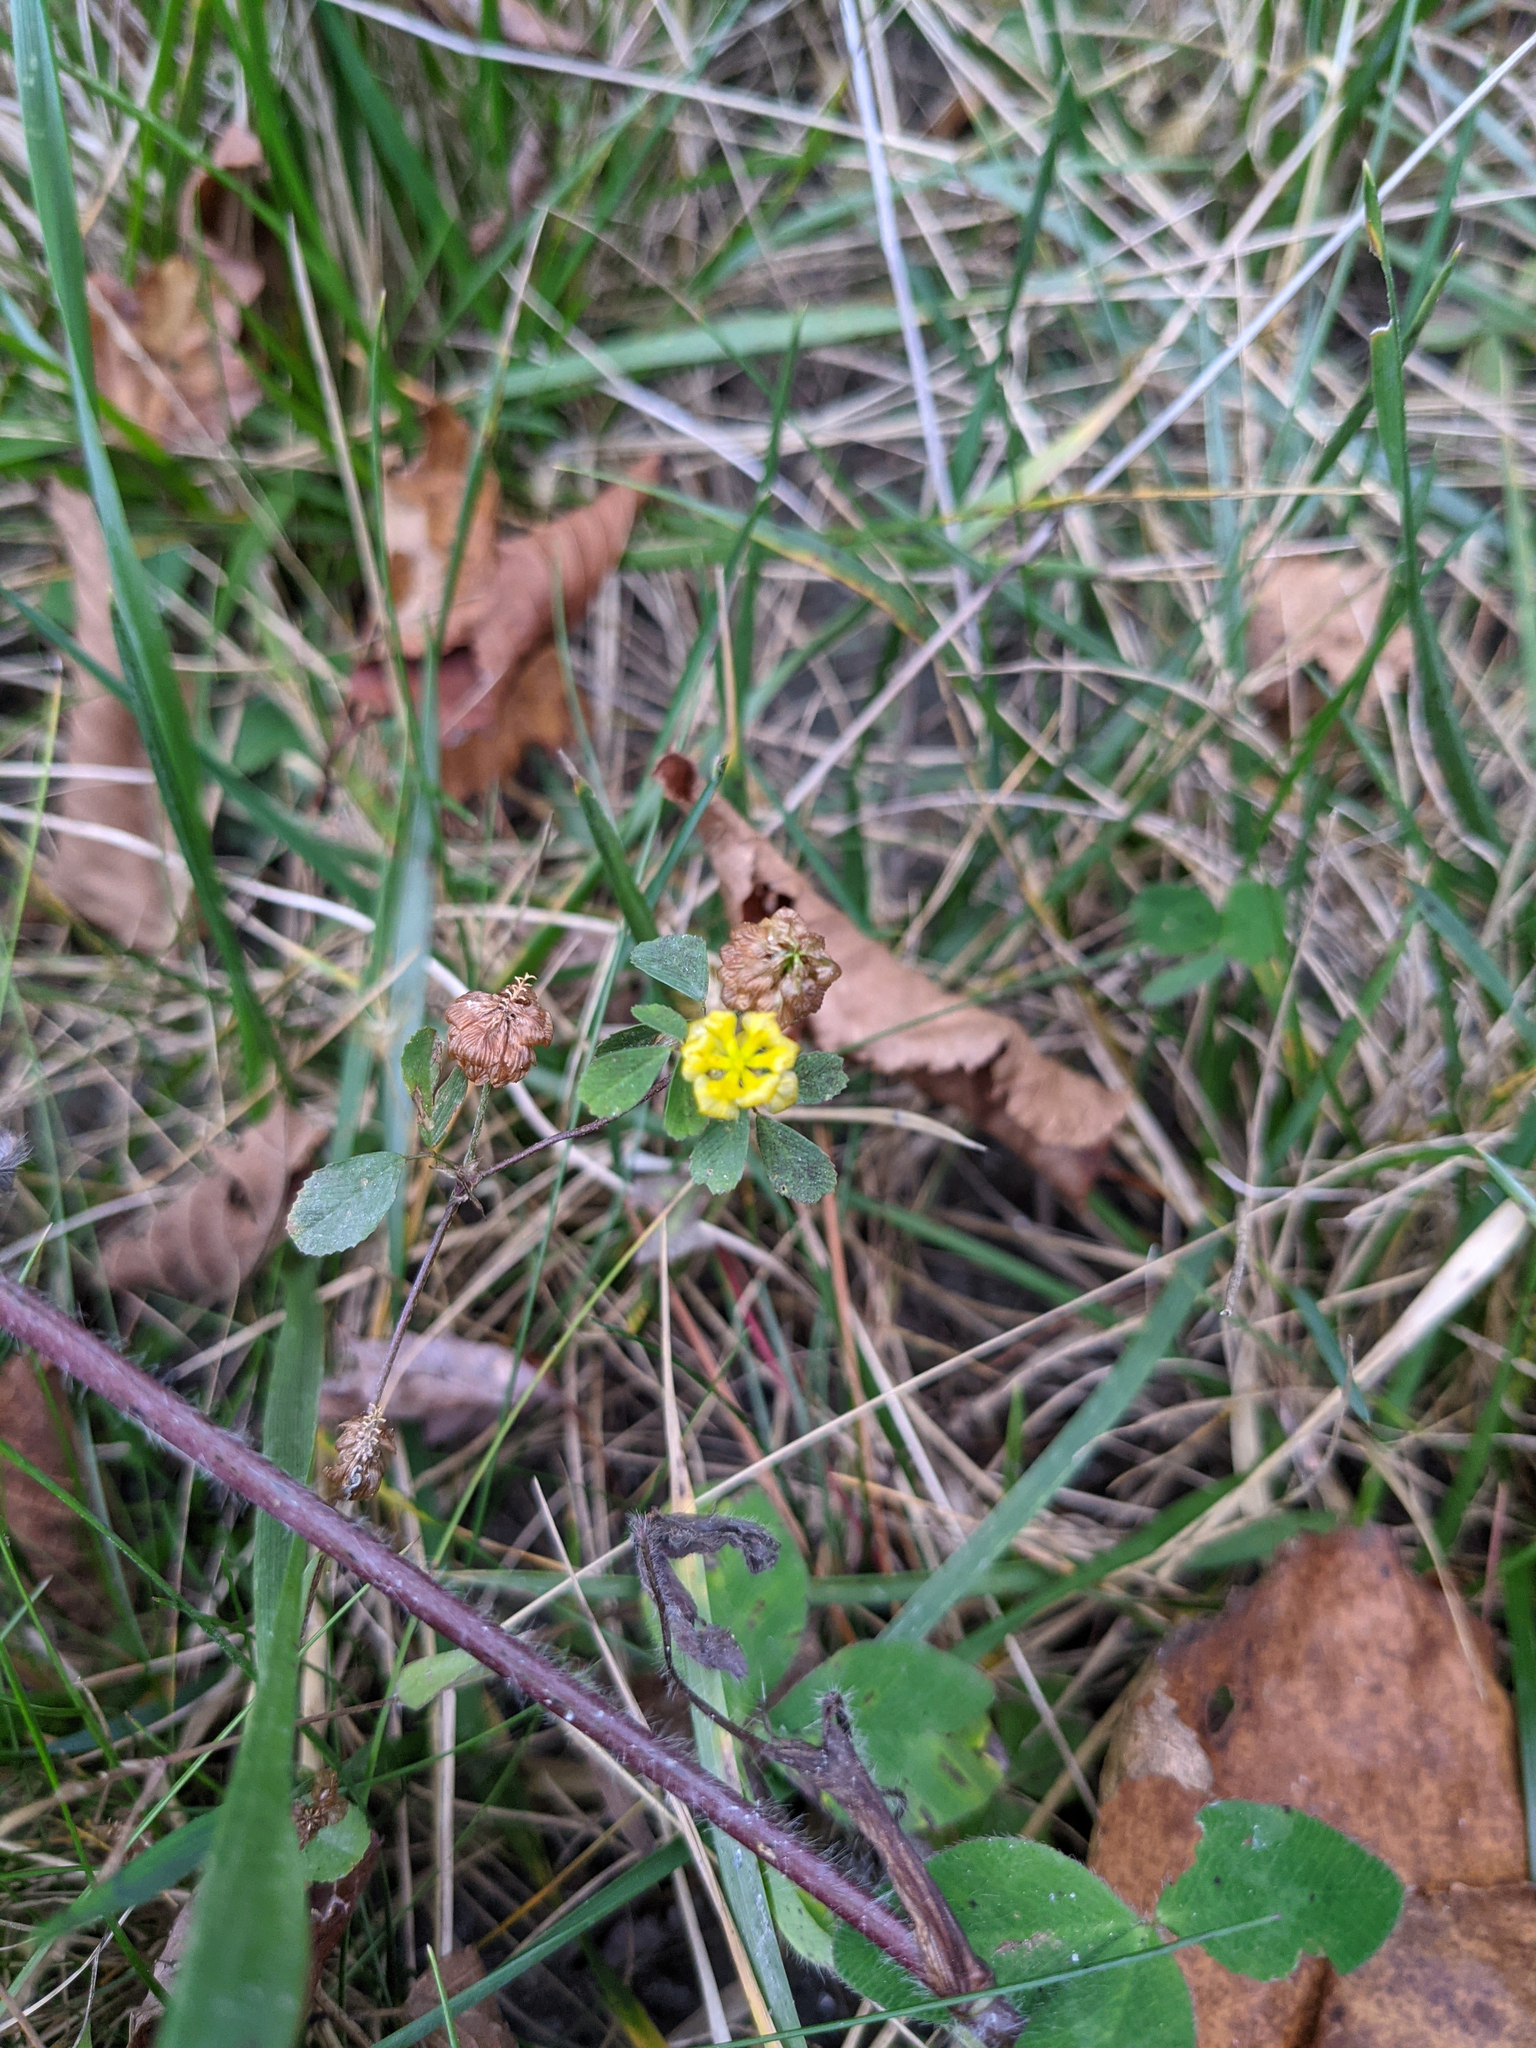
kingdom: Plantae
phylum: Tracheophyta
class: Magnoliopsida
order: Fabales
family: Fabaceae
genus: Trifolium
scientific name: Trifolium campestre
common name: Field clover
